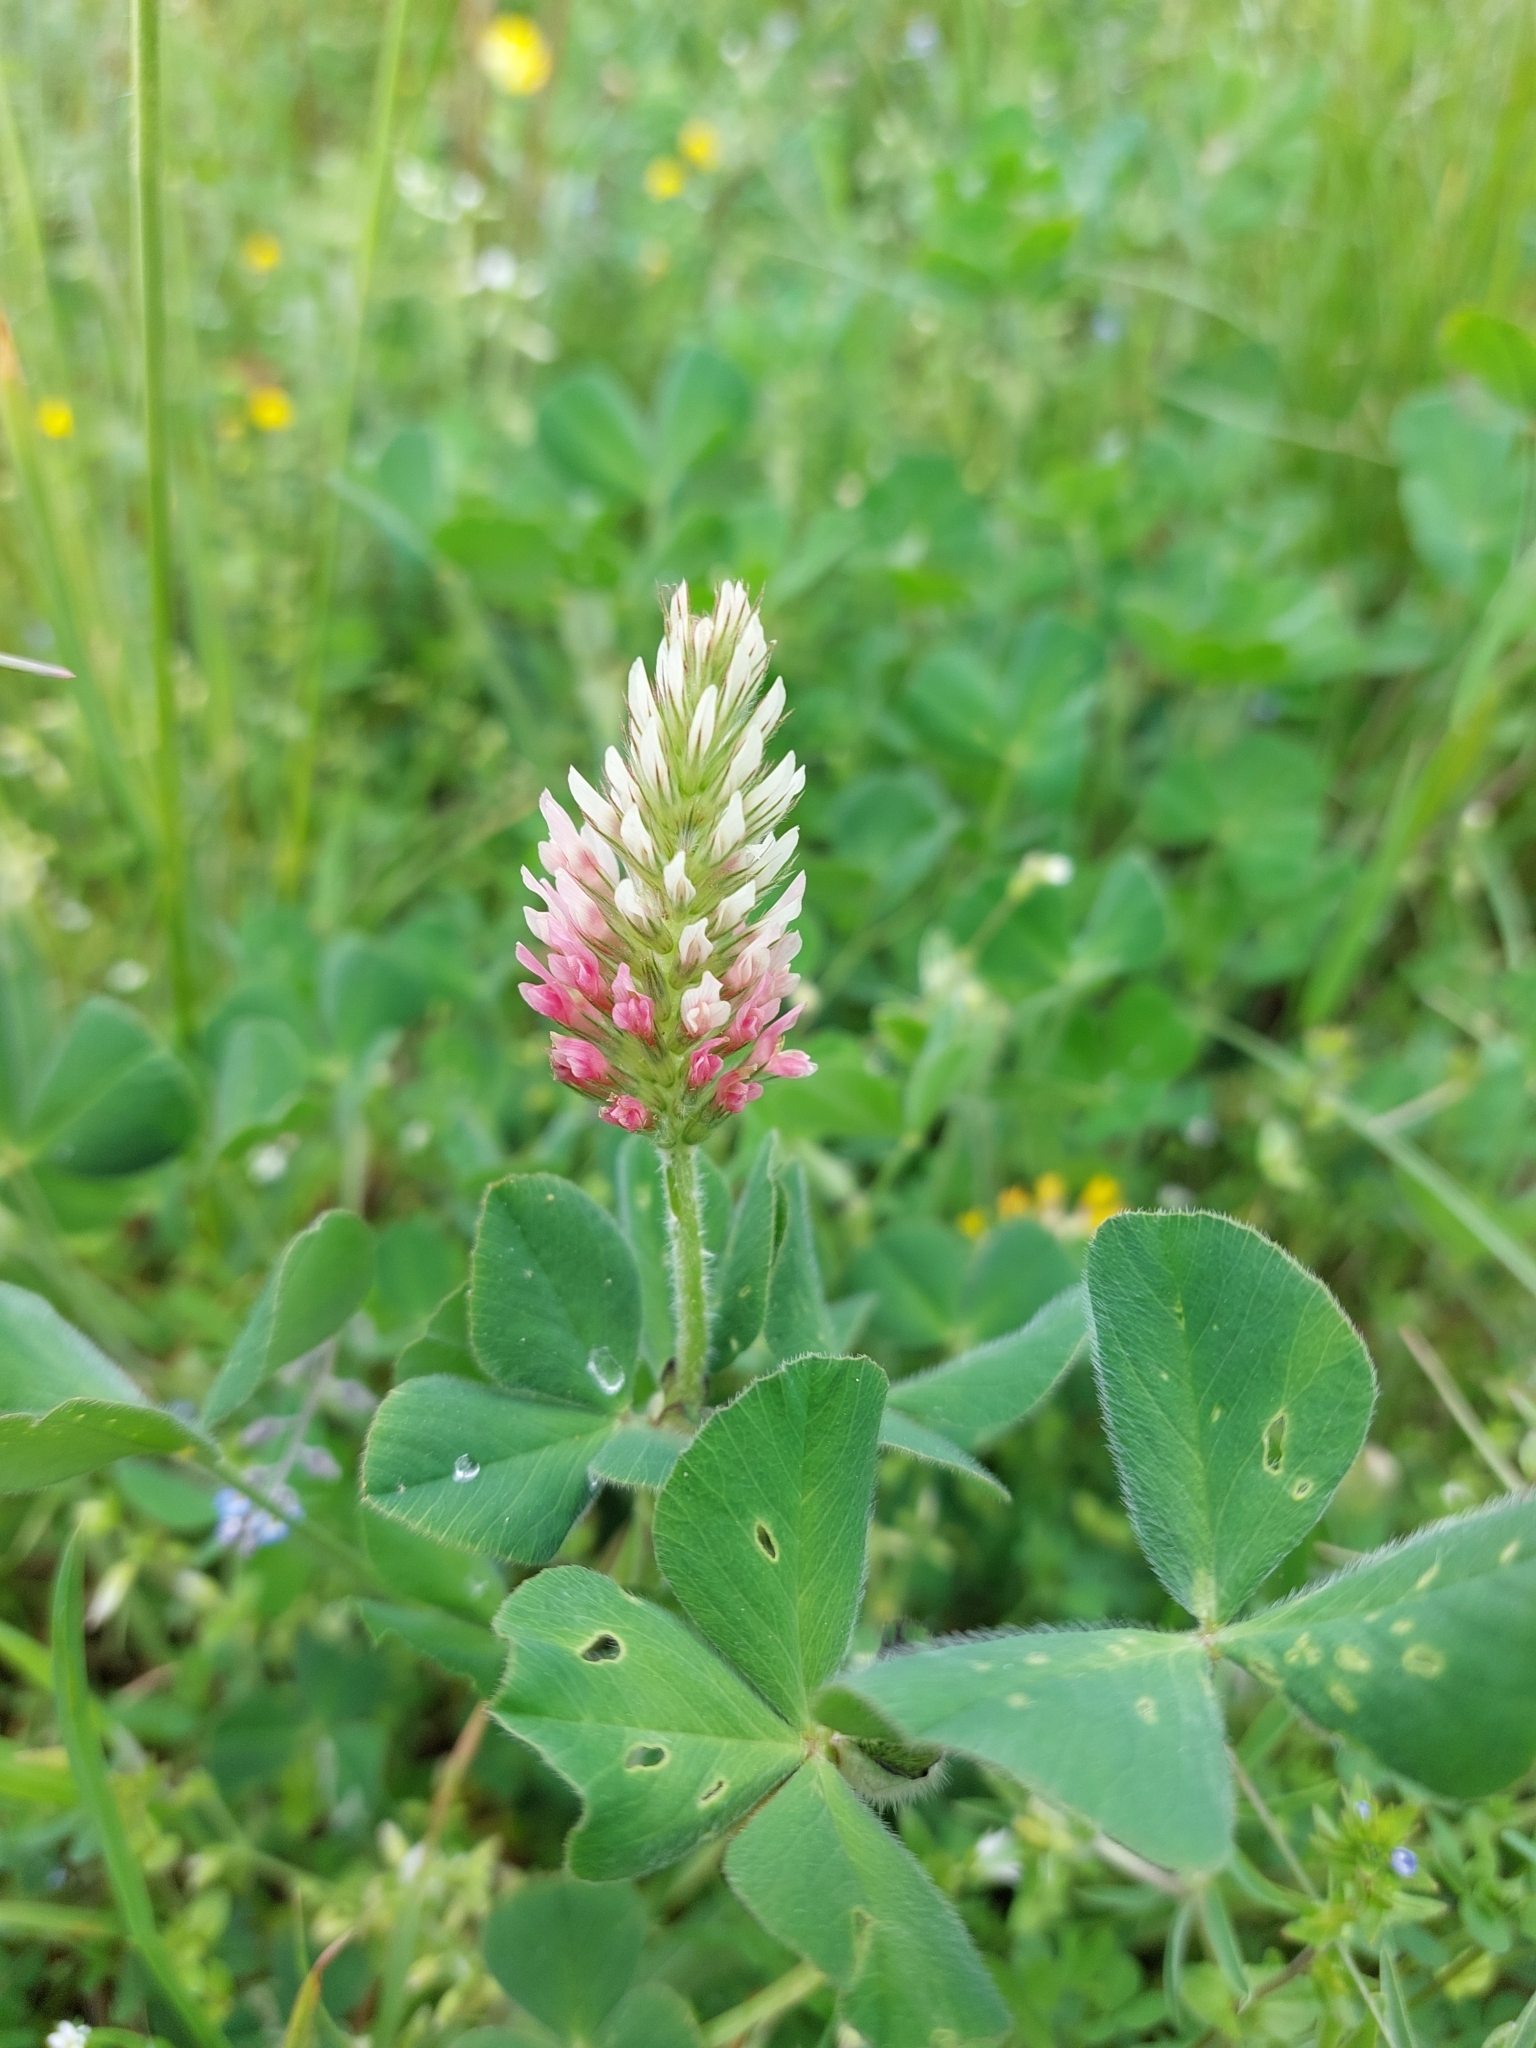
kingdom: Plantae
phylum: Tracheophyta
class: Magnoliopsida
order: Fabales
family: Fabaceae
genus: Trifolium
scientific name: Trifolium incarnatum
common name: Crimson clover
